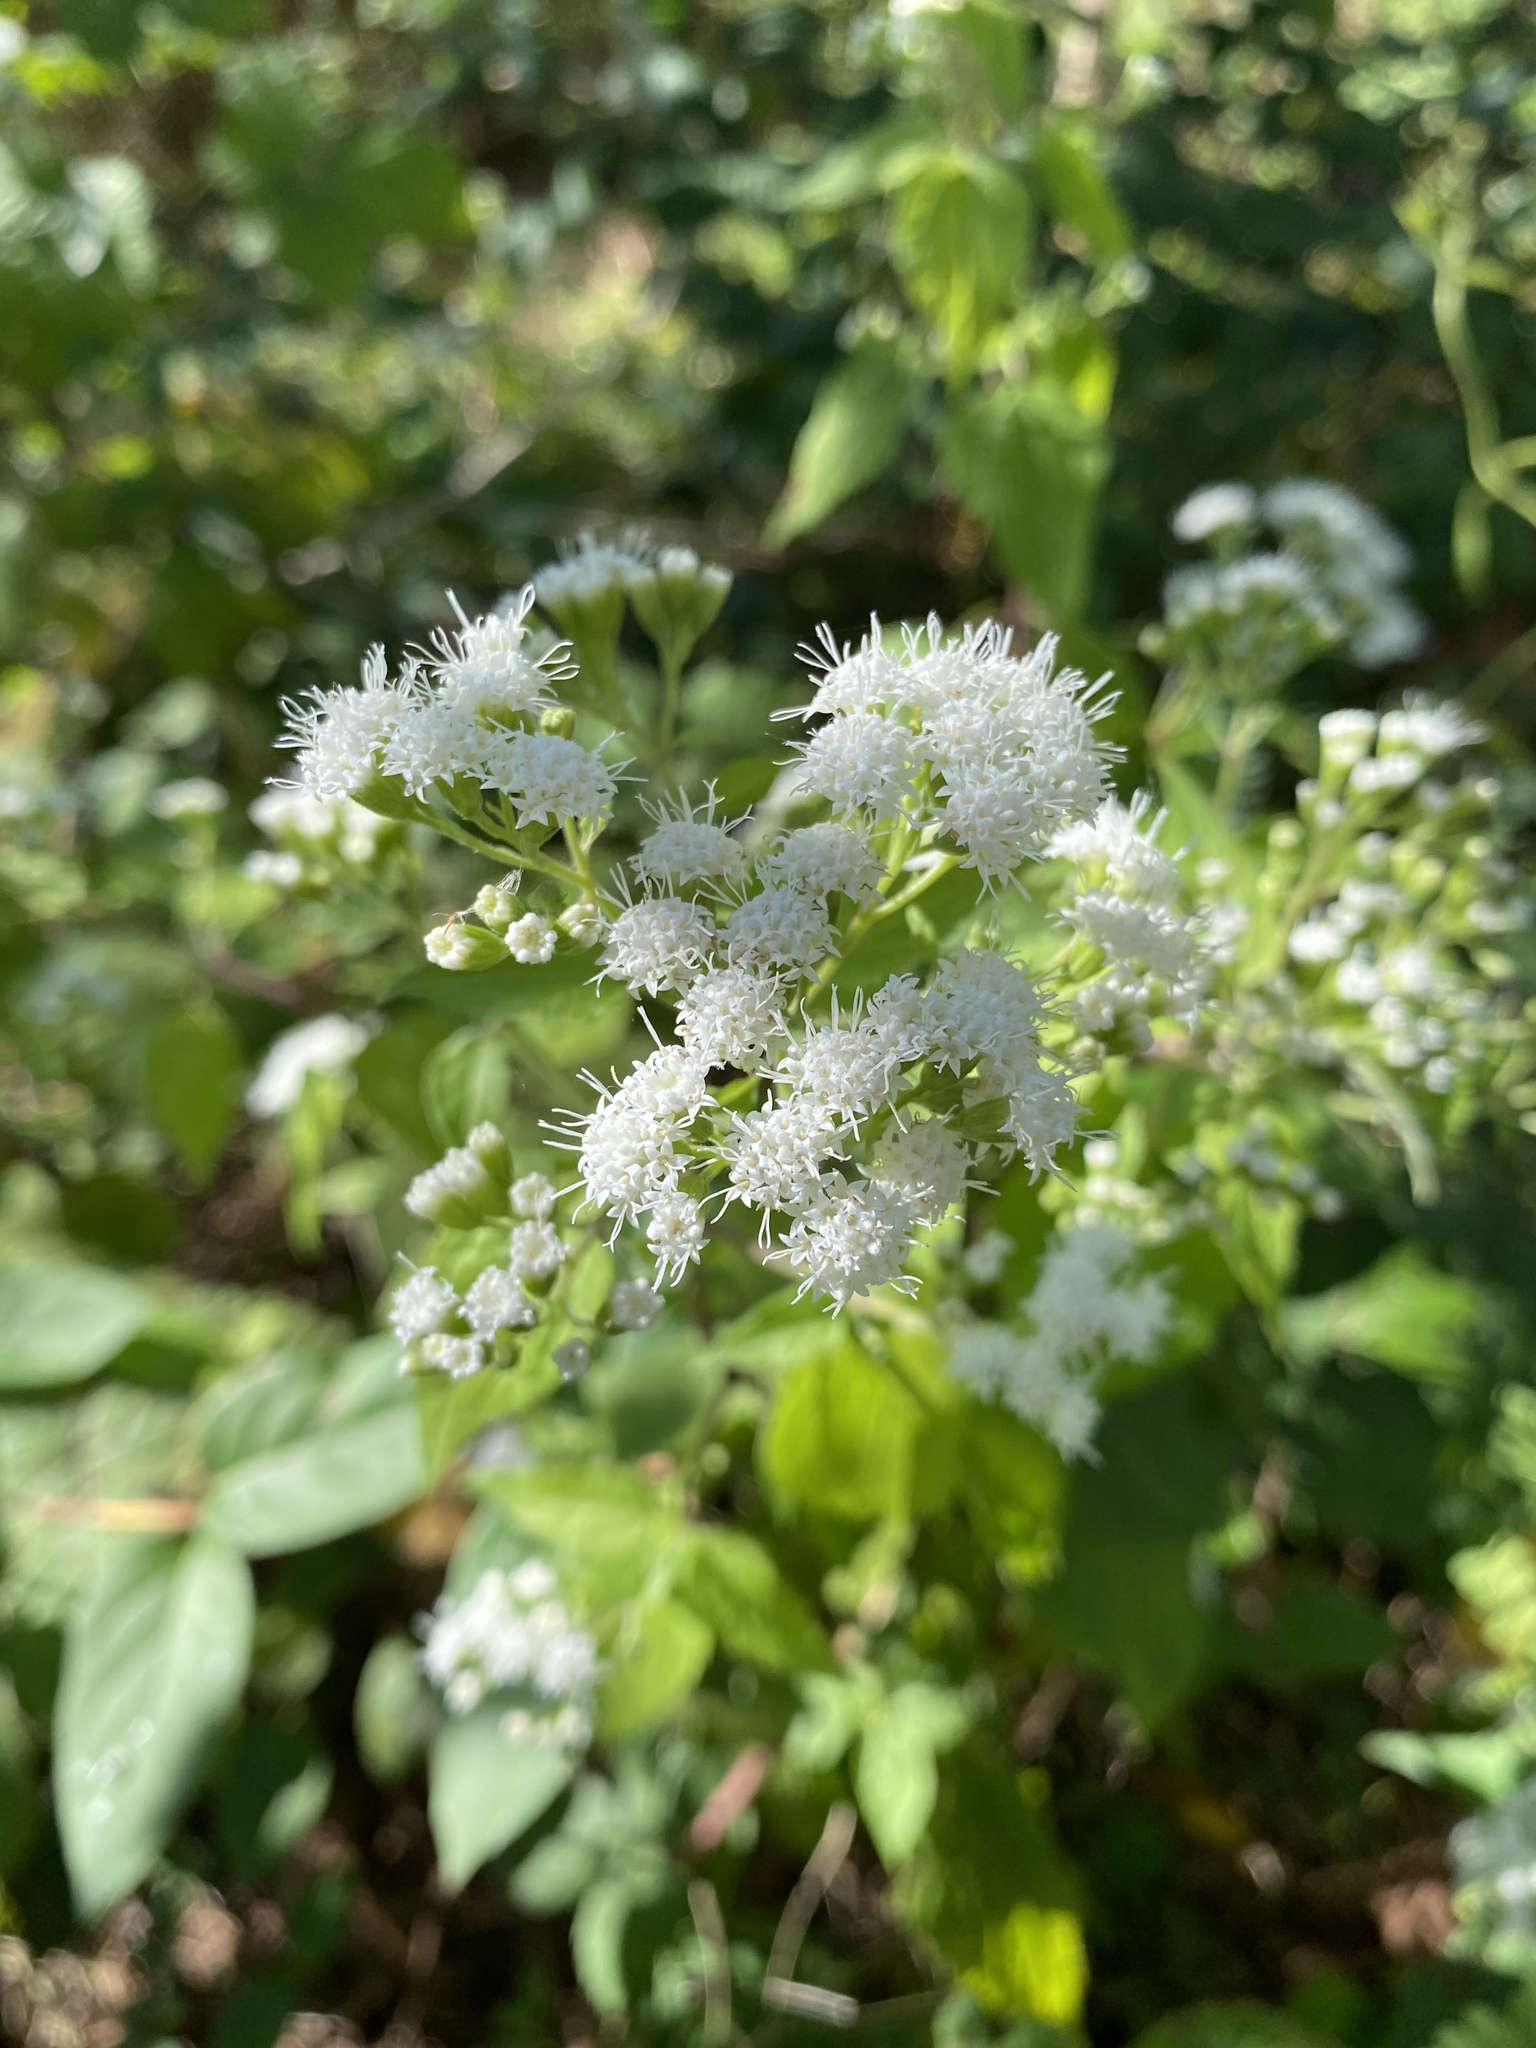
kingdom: Plantae
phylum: Tracheophyta
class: Magnoliopsida
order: Asterales
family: Asteraceae
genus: Ageratina
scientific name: Ageratina altissima
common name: White snakeroot
